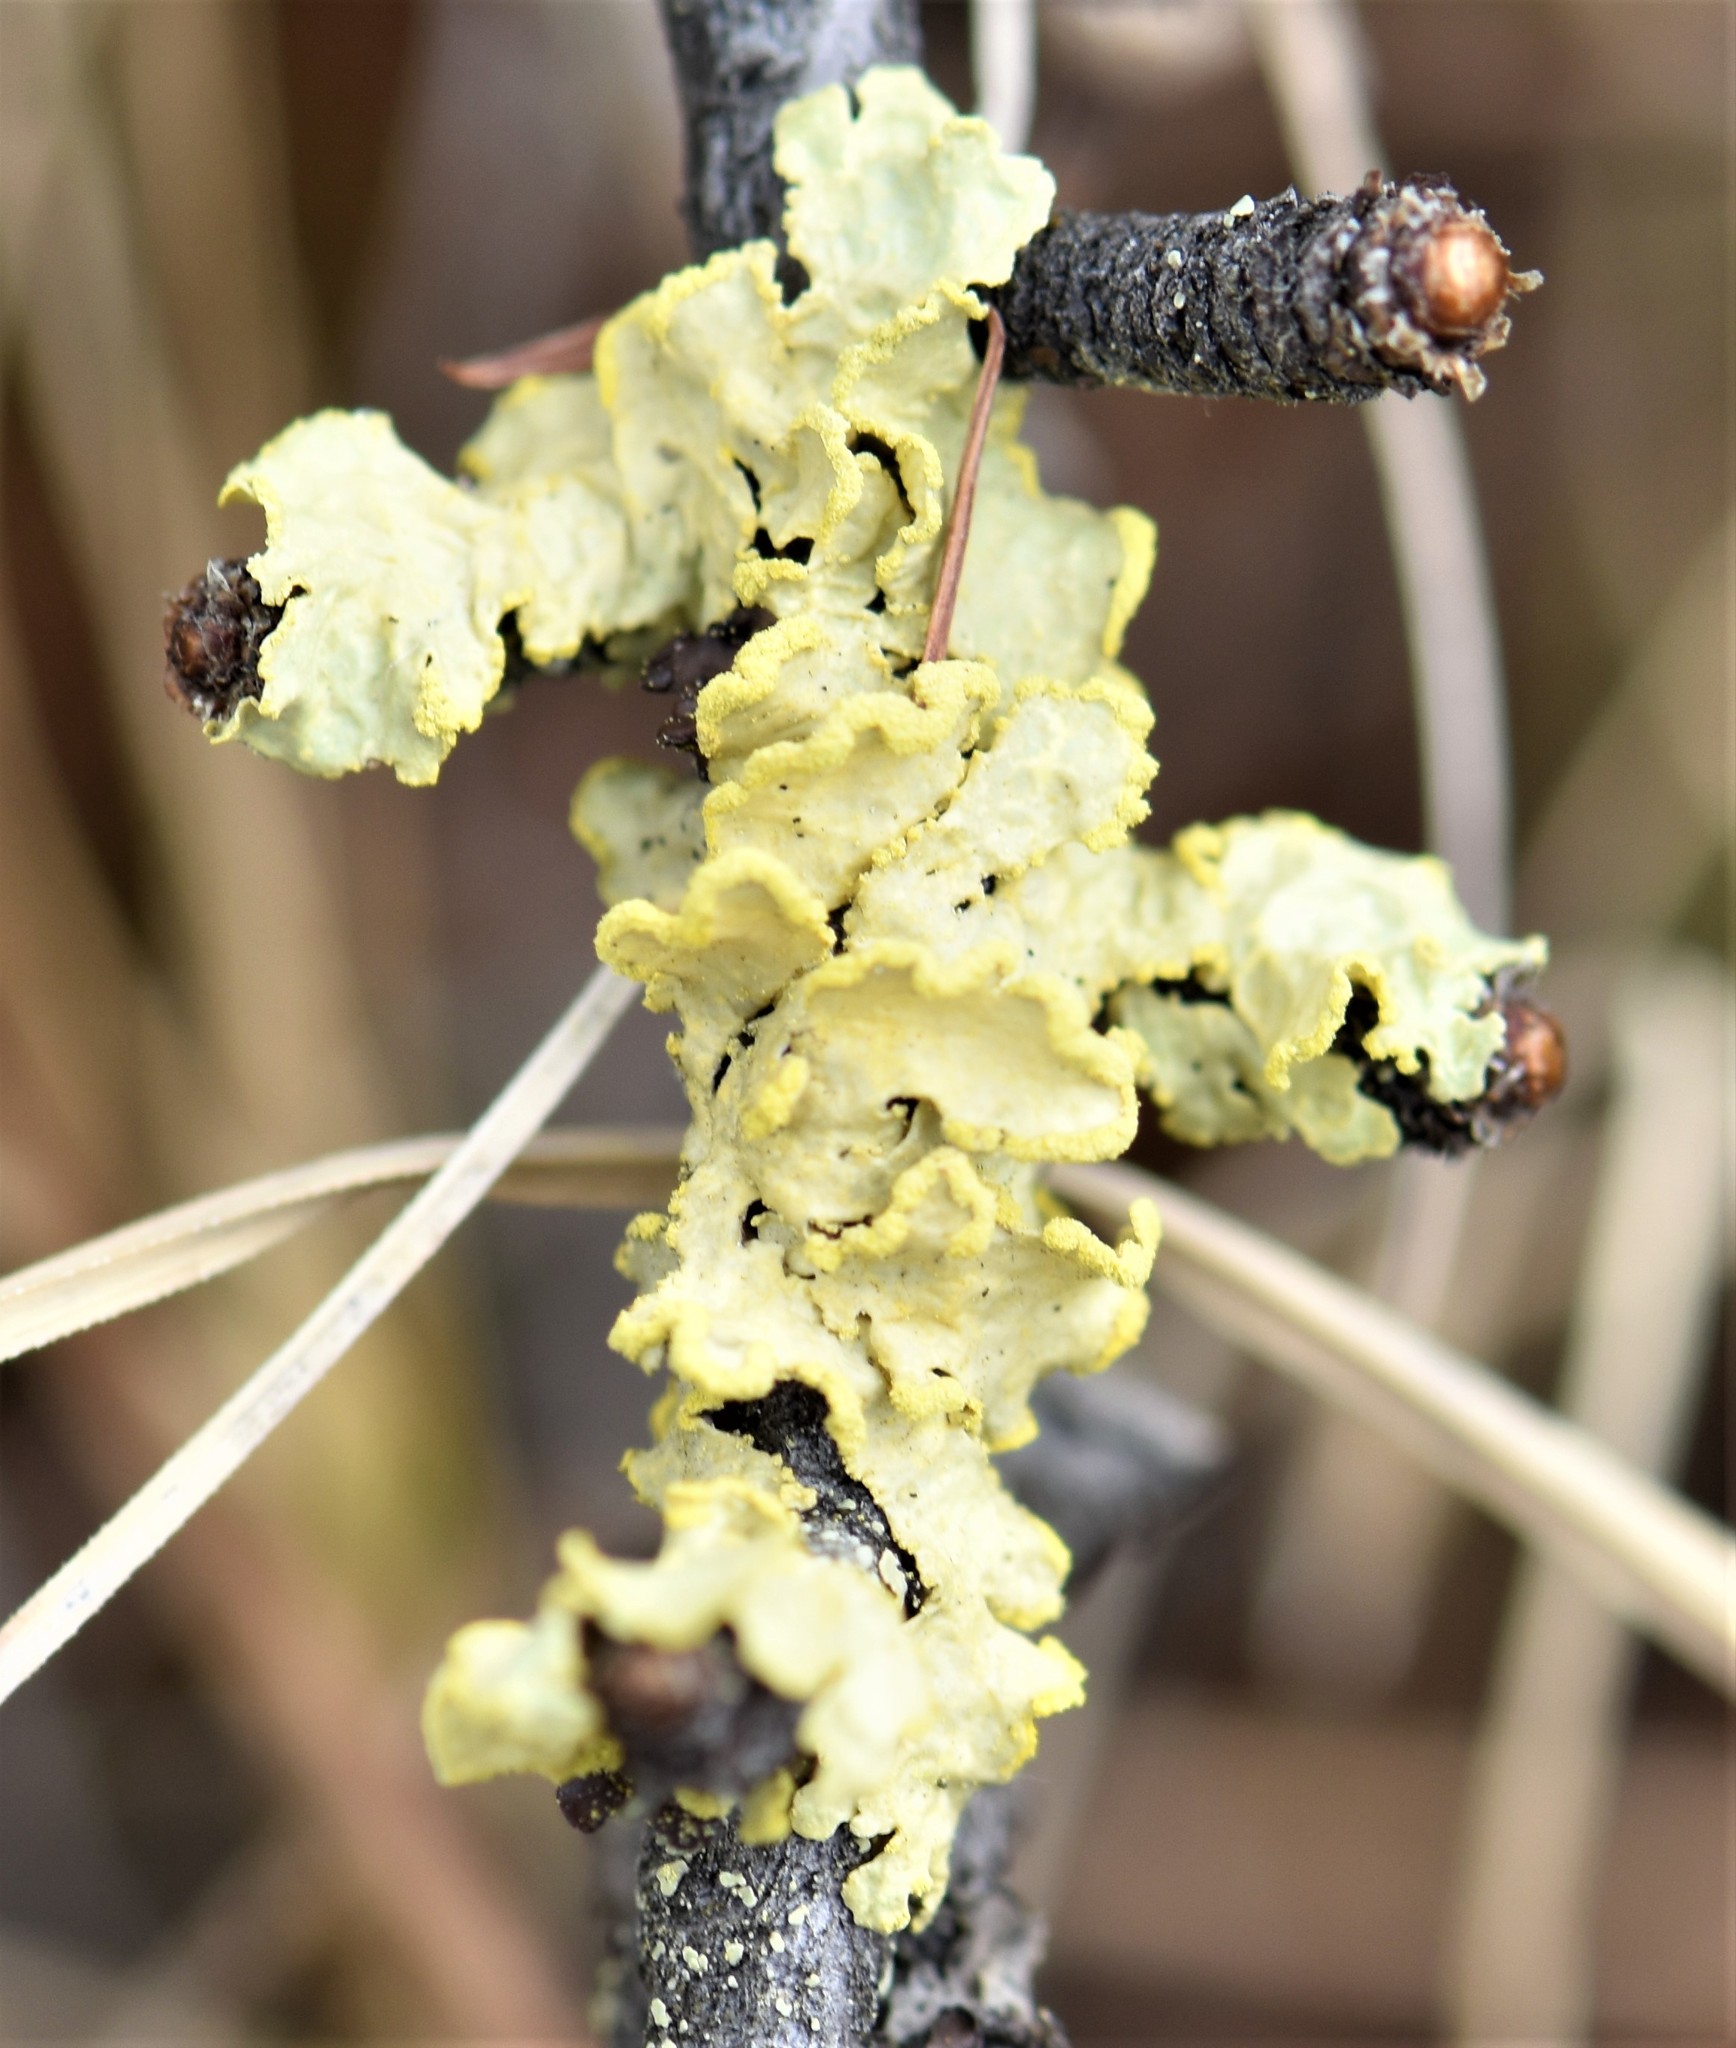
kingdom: Fungi
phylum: Ascomycota
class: Lecanoromycetes
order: Lecanorales
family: Parmeliaceae
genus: Vulpicida
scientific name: Vulpicida pinastri
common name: Powdered sunshine lichen
